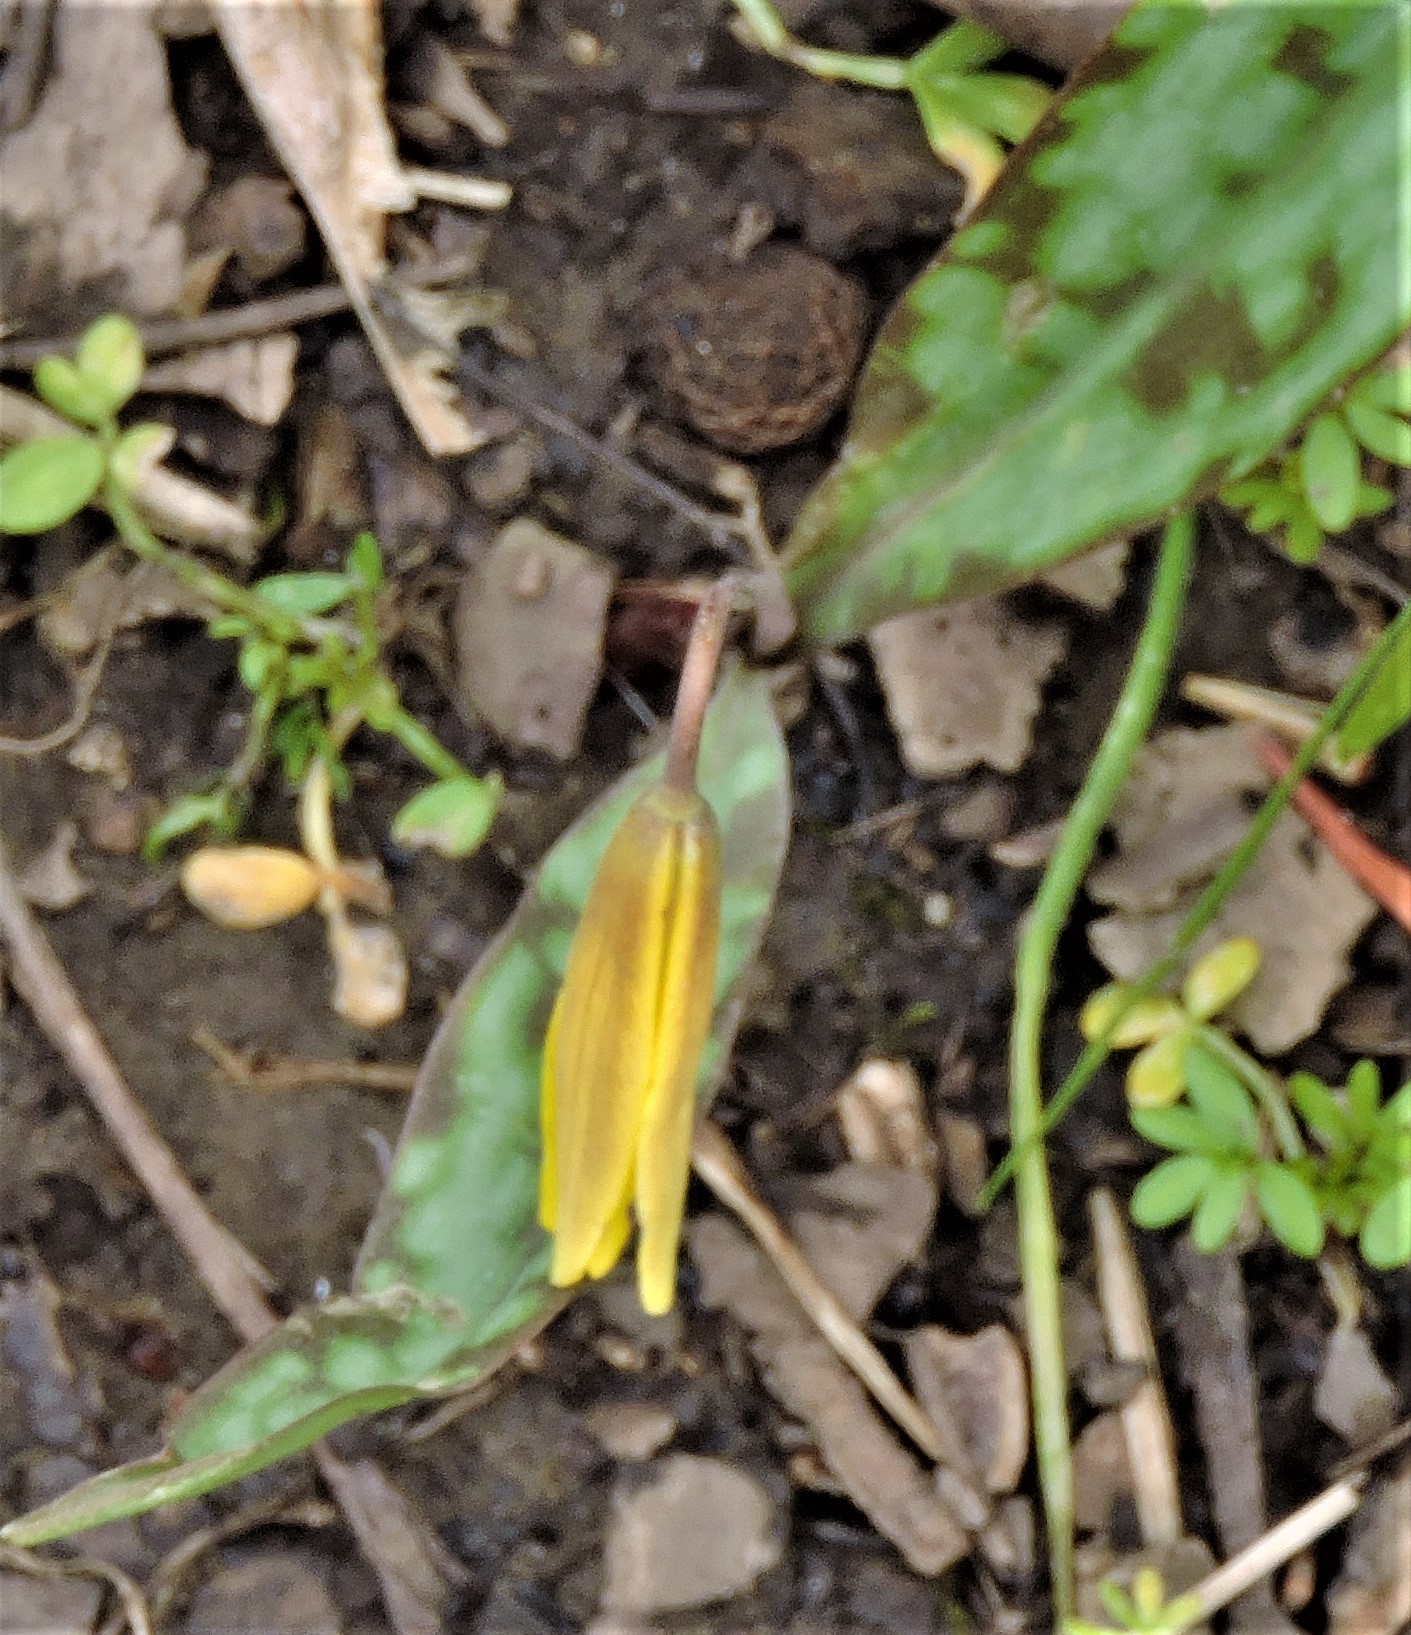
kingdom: Plantae
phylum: Tracheophyta
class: Liliopsida
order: Liliales
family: Liliaceae
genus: Erythronium
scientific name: Erythronium americanum
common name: Yellow adder's-tongue
